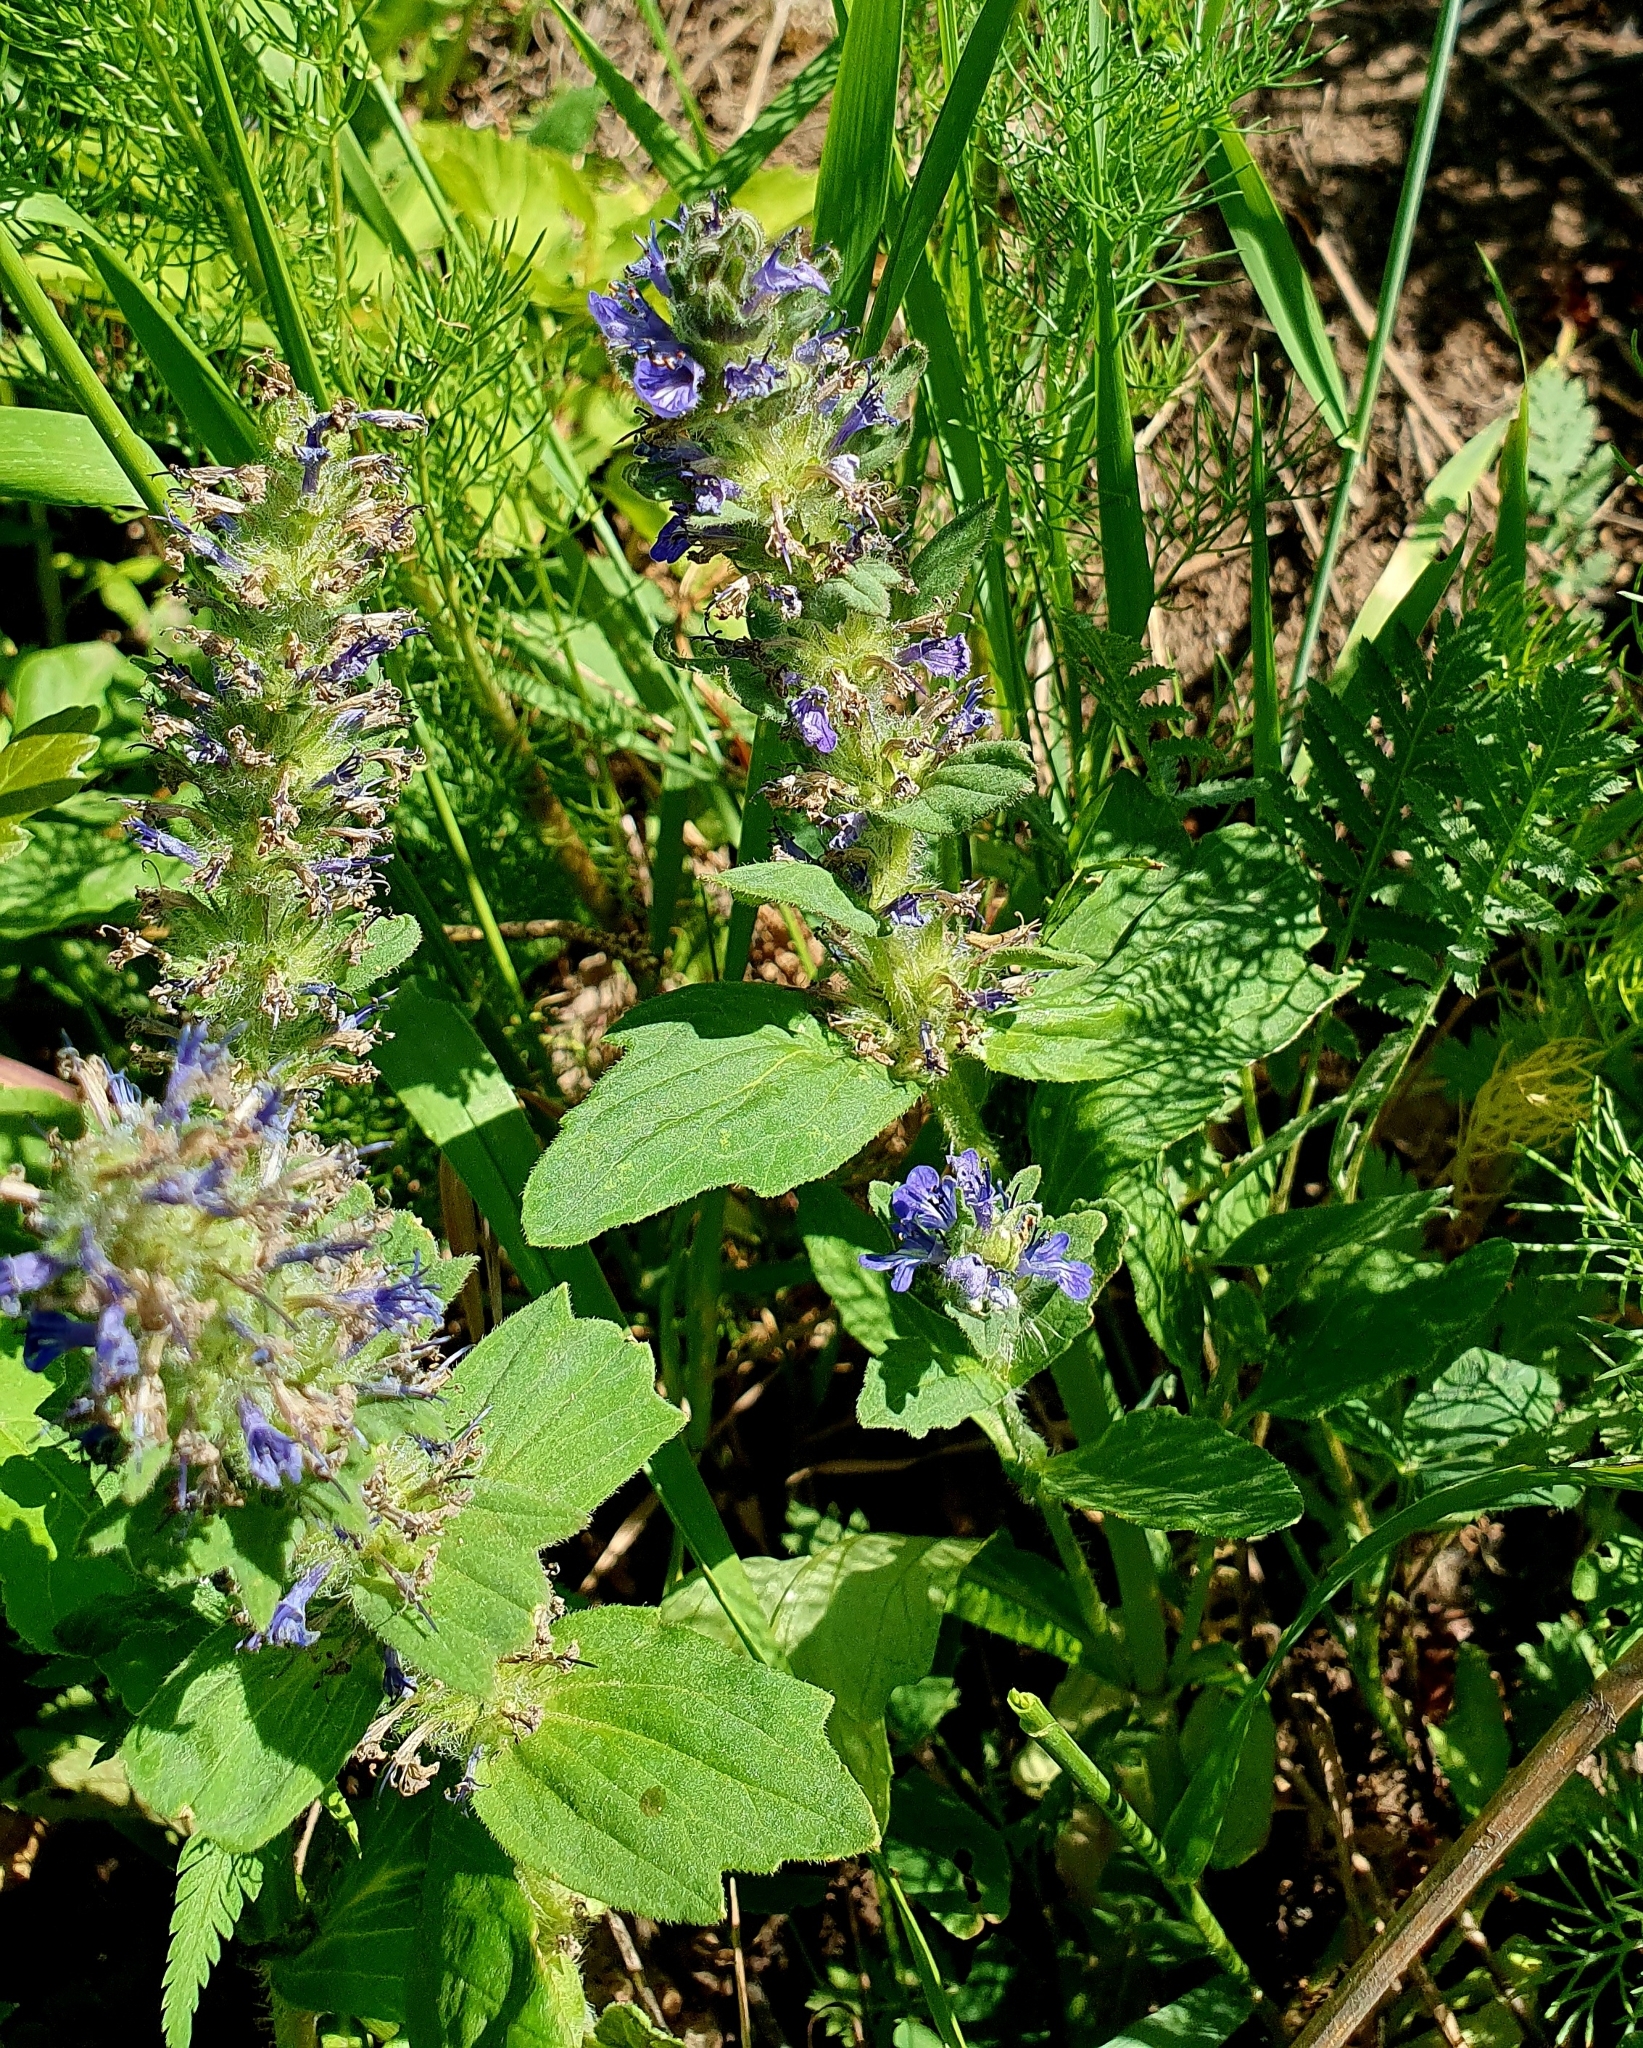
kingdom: Plantae
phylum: Tracheophyta
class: Magnoliopsida
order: Lamiales
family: Lamiaceae
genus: Ajuga
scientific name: Ajuga genevensis
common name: Blue bugle
